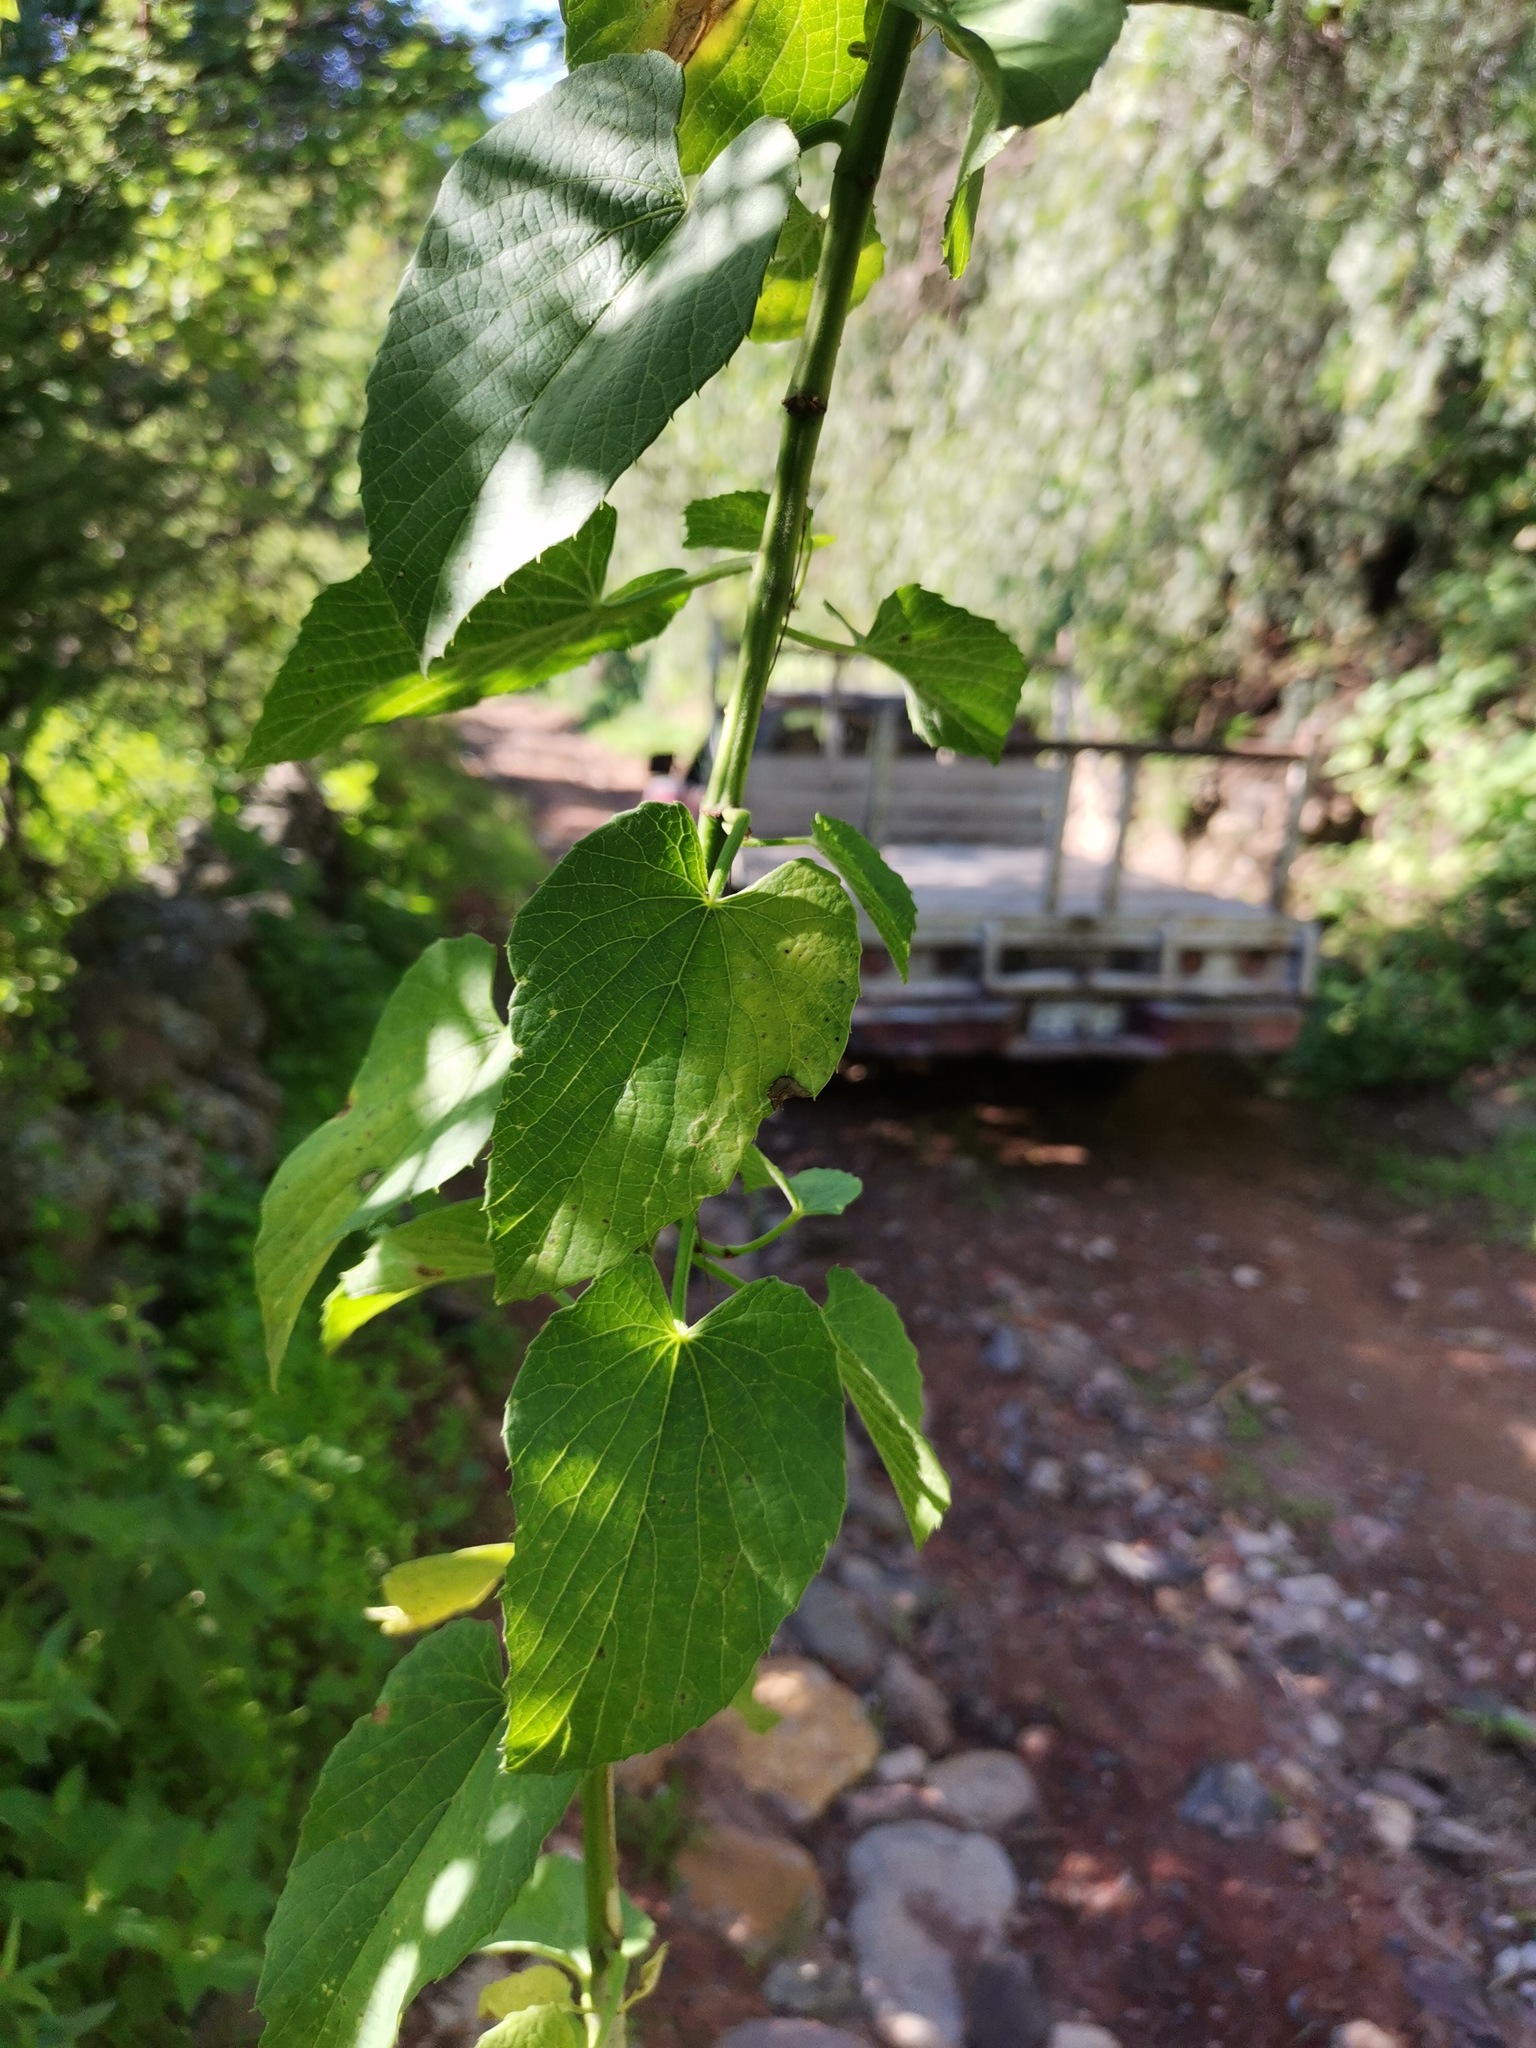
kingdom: Plantae
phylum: Tracheophyta
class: Magnoliopsida
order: Vitales
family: Vitaceae
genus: Cissus
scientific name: Cissus tiliacea
